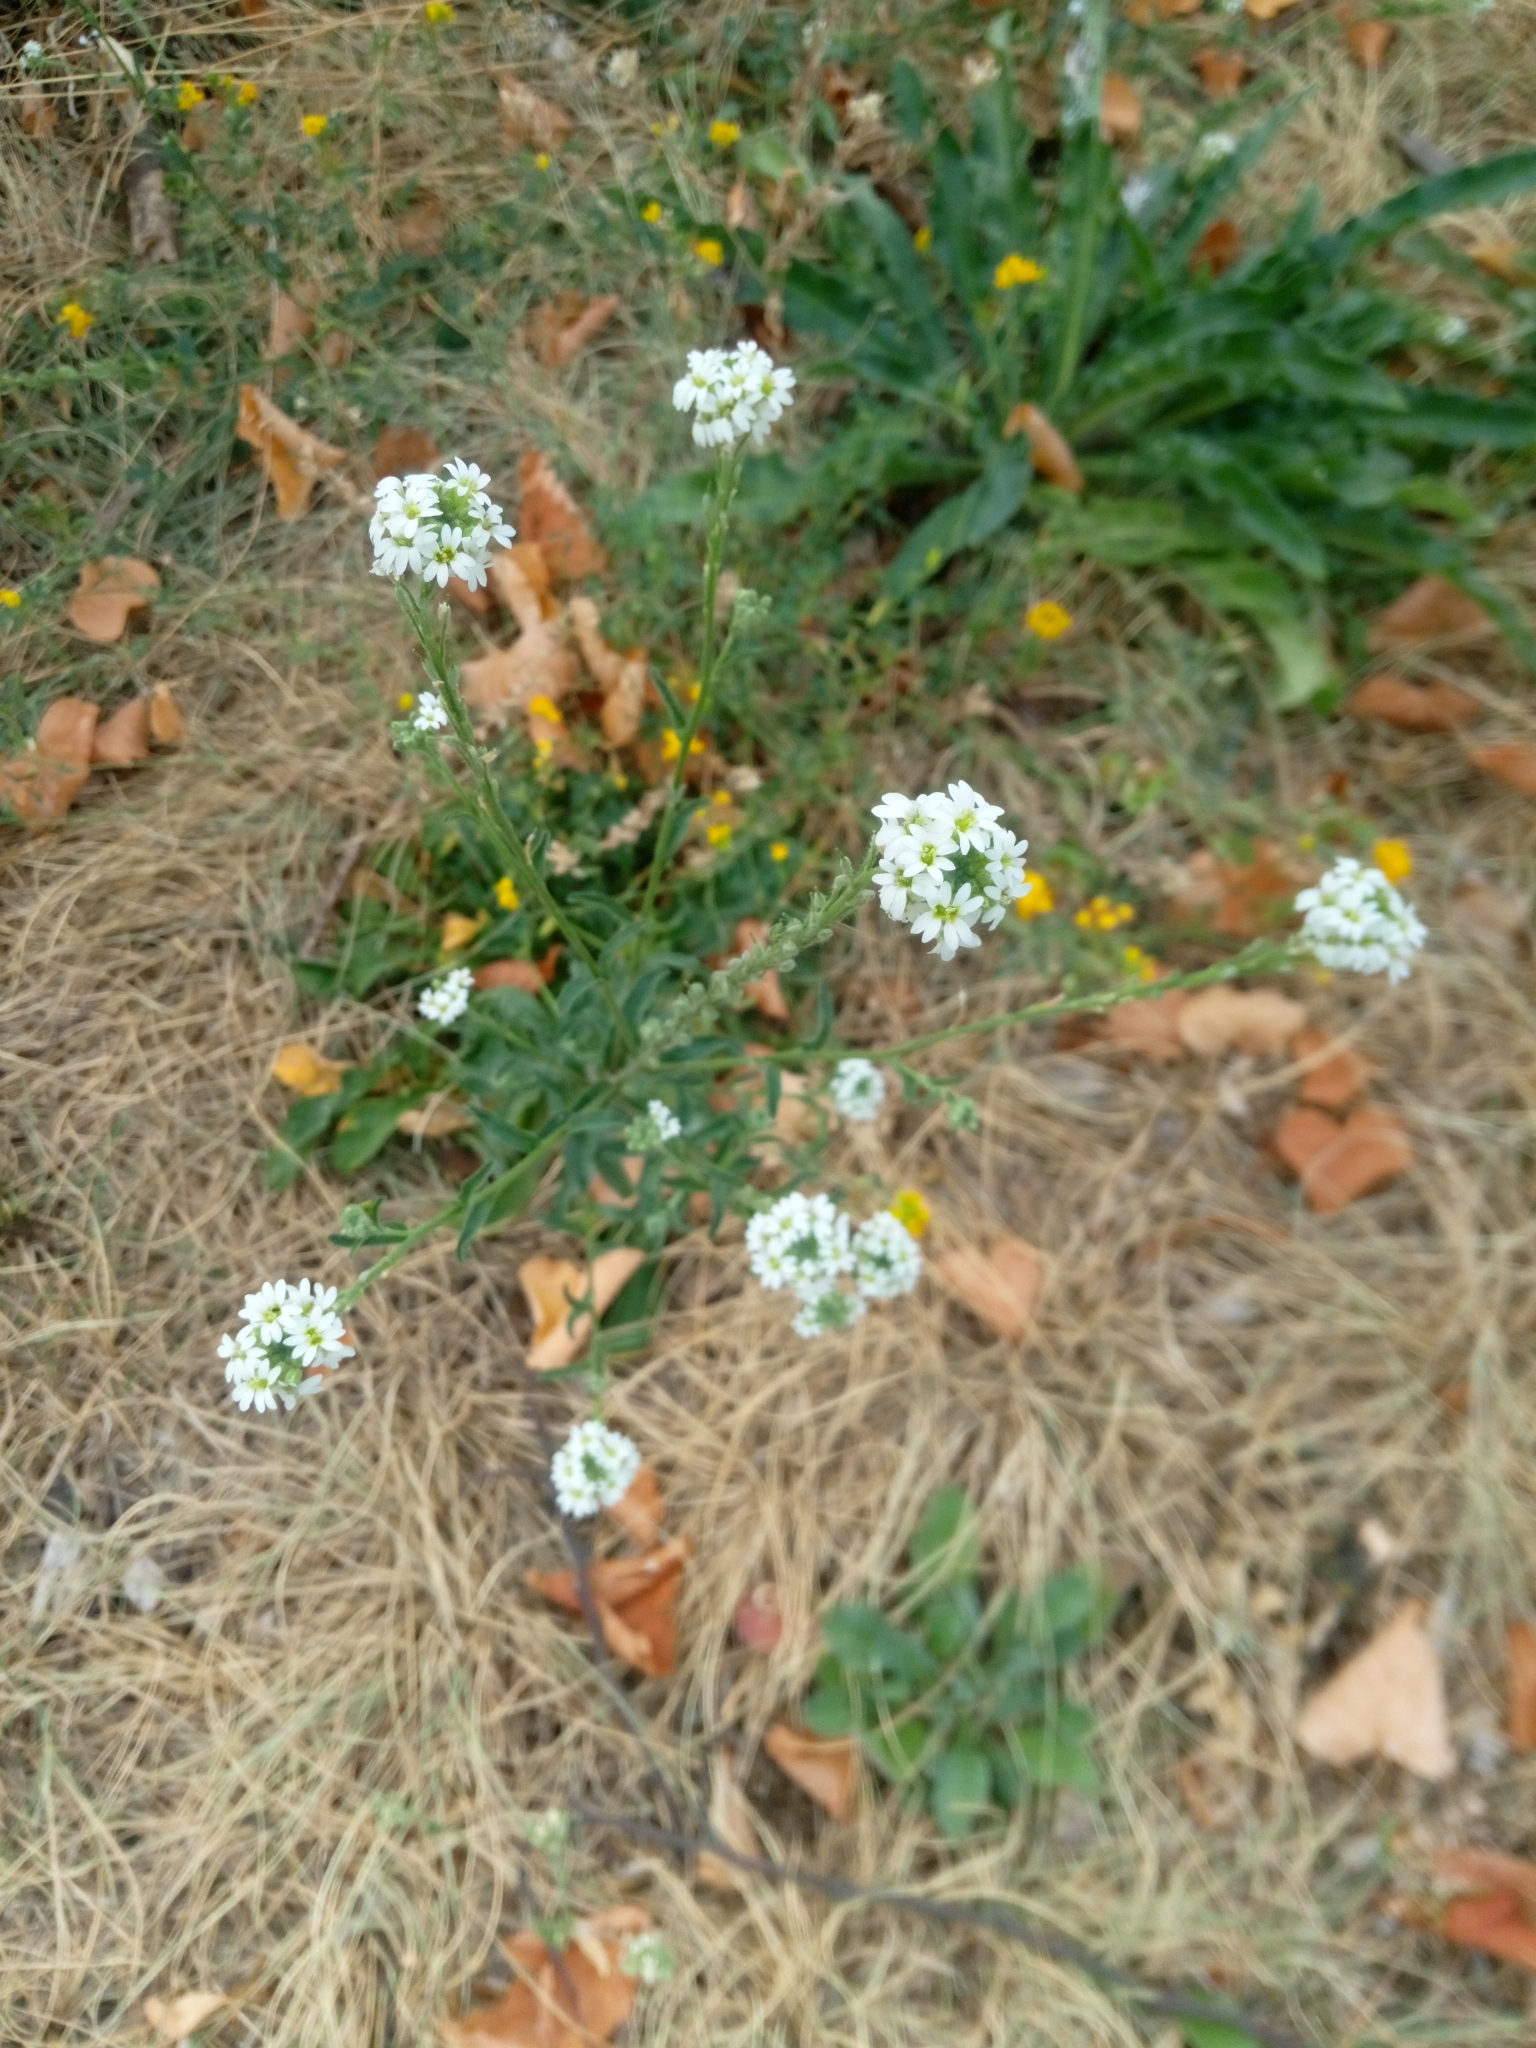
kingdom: Plantae
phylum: Tracheophyta
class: Magnoliopsida
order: Brassicales
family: Brassicaceae
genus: Berteroa
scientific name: Berteroa incana
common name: Hoary alison
